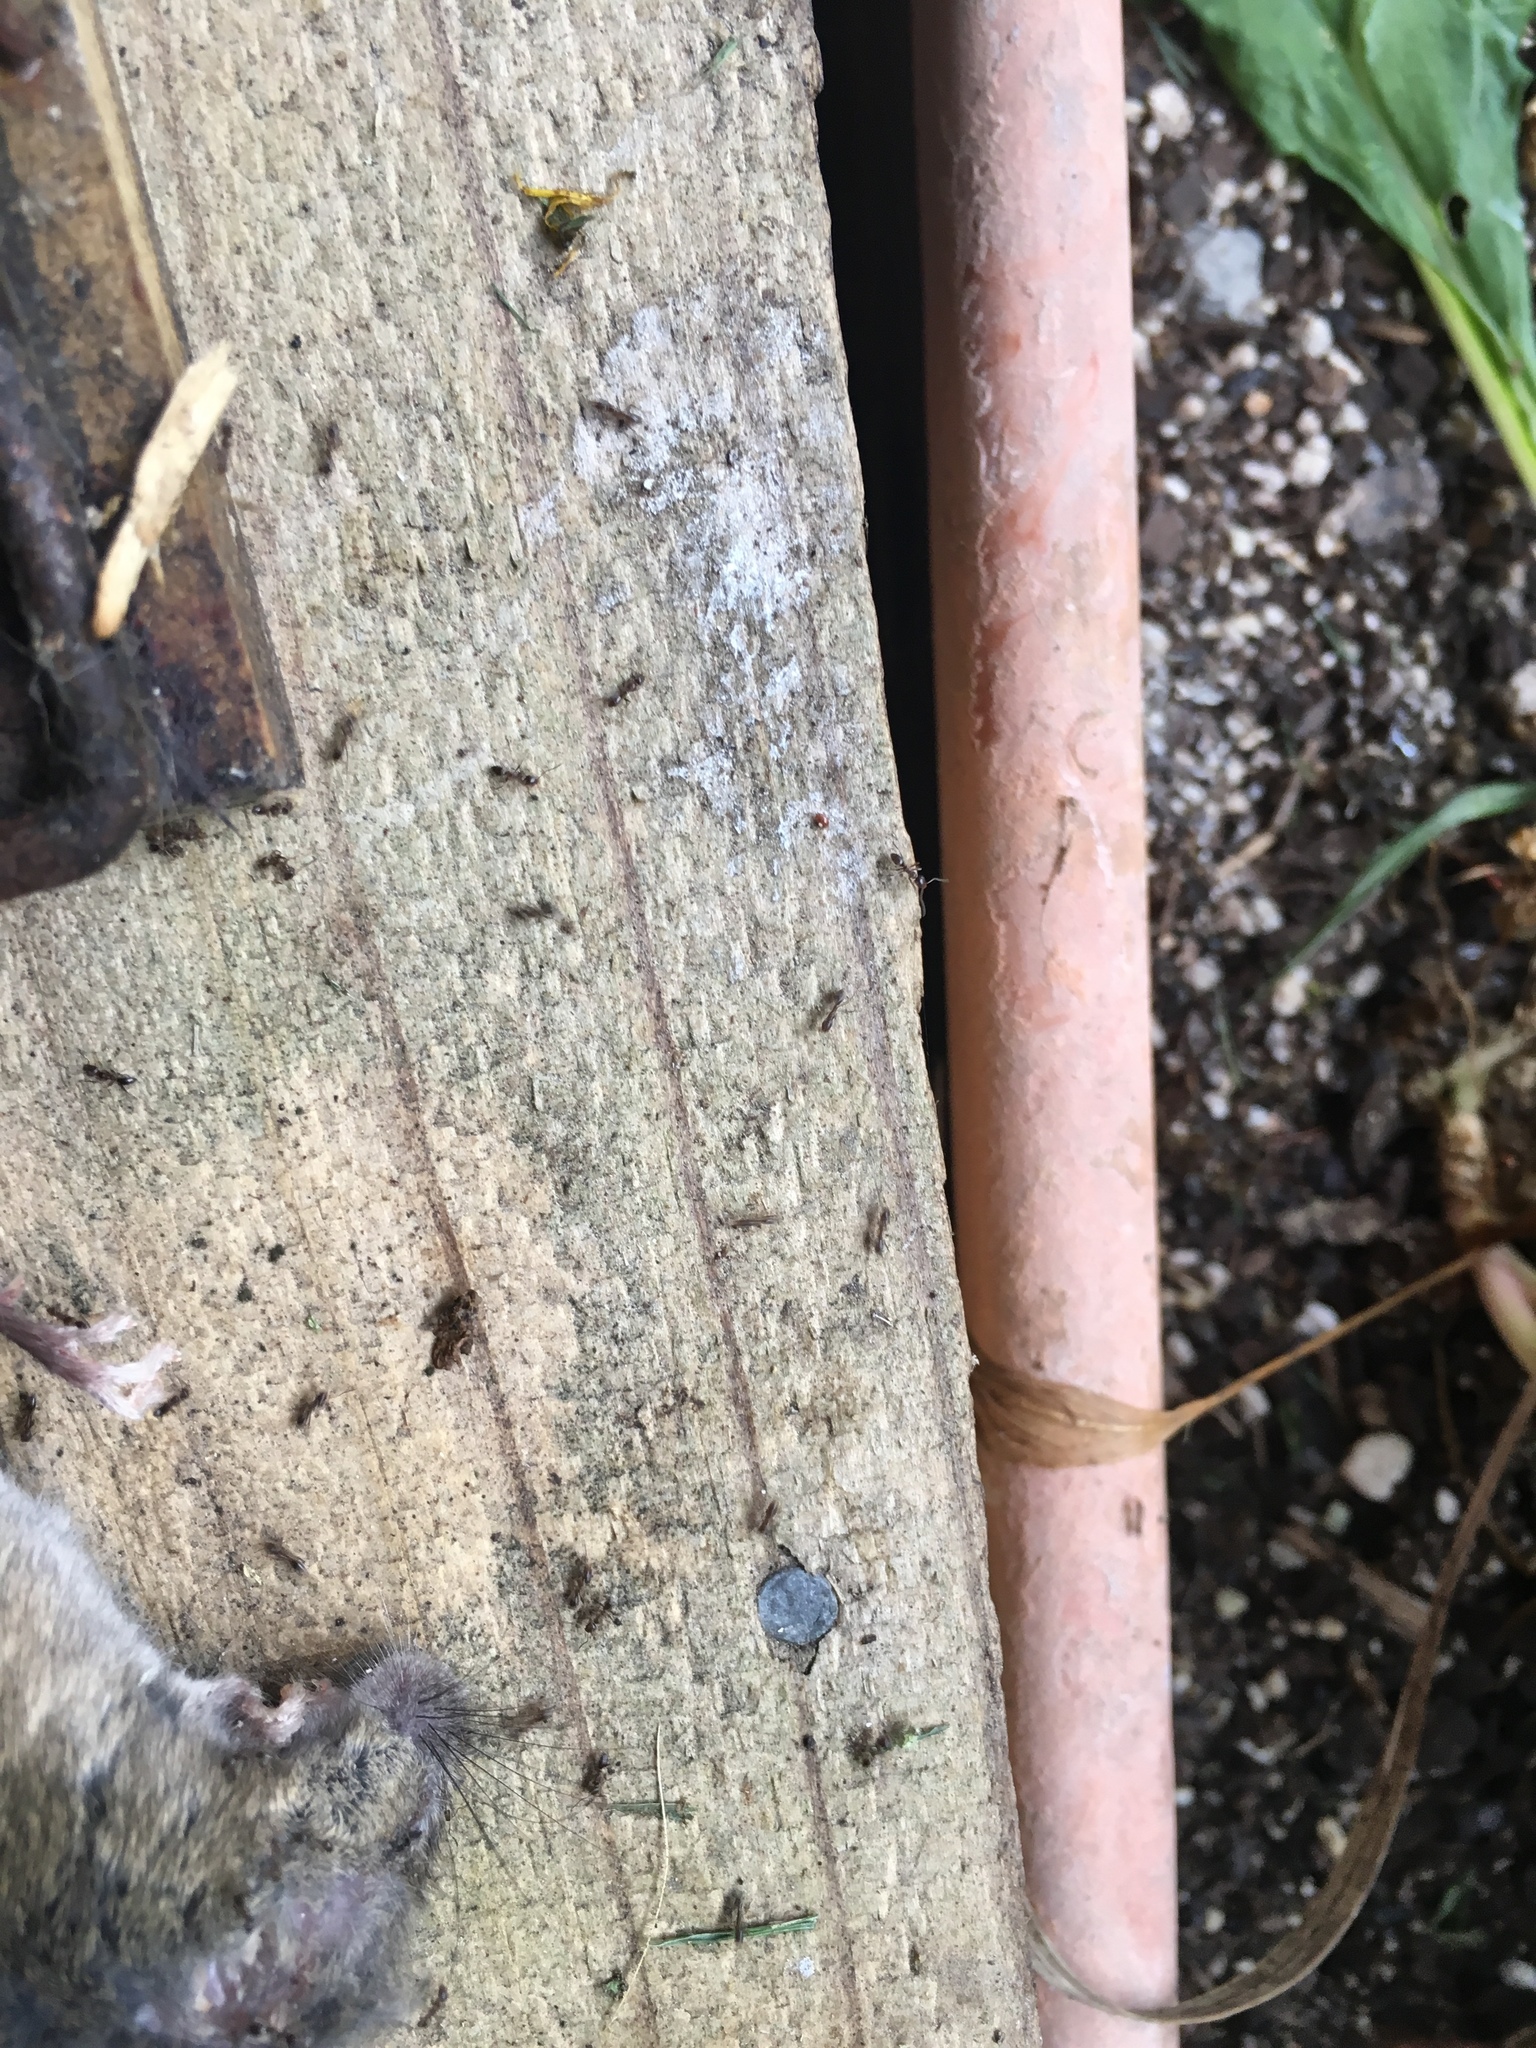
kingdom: Animalia
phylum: Arthropoda
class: Insecta
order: Hymenoptera
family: Formicidae
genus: Linepithema
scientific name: Linepithema humile
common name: Argentine ant
